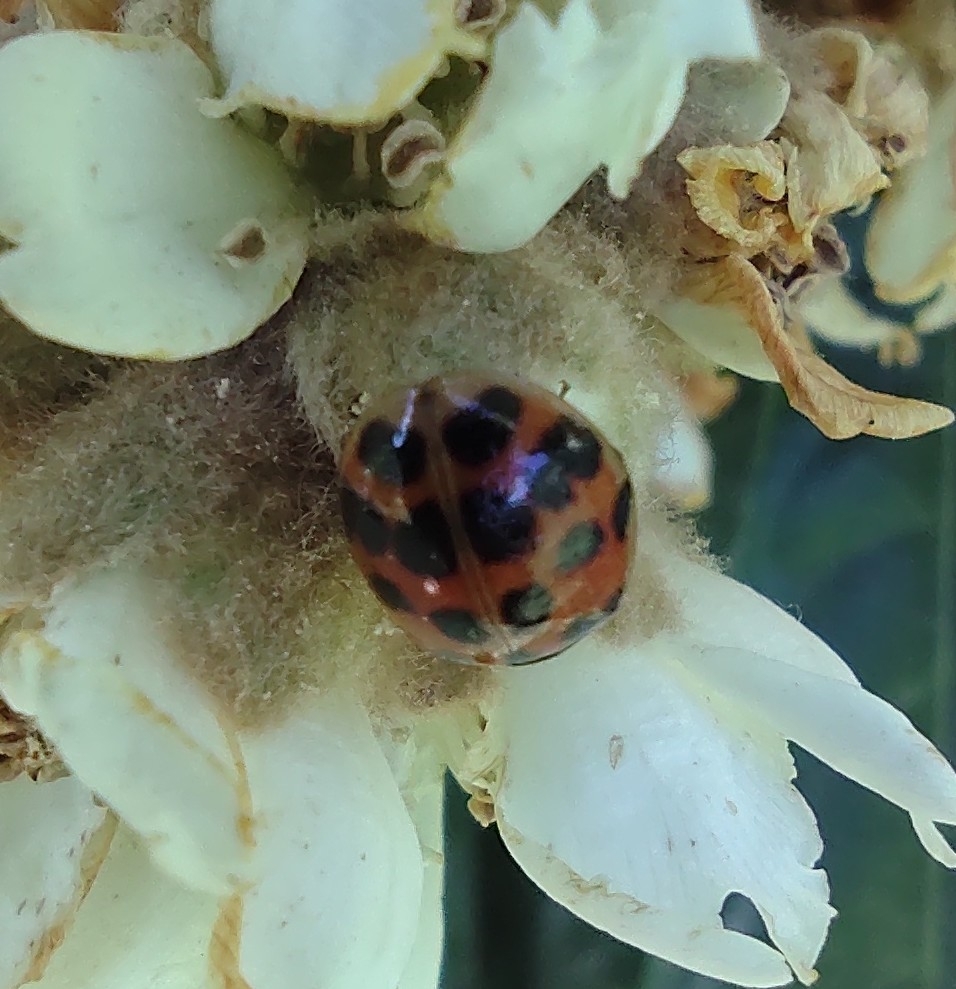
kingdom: Animalia
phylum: Arthropoda
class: Insecta
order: Coleoptera
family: Coccinellidae
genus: Harmonia
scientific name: Harmonia axyridis
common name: Harlequin ladybird
